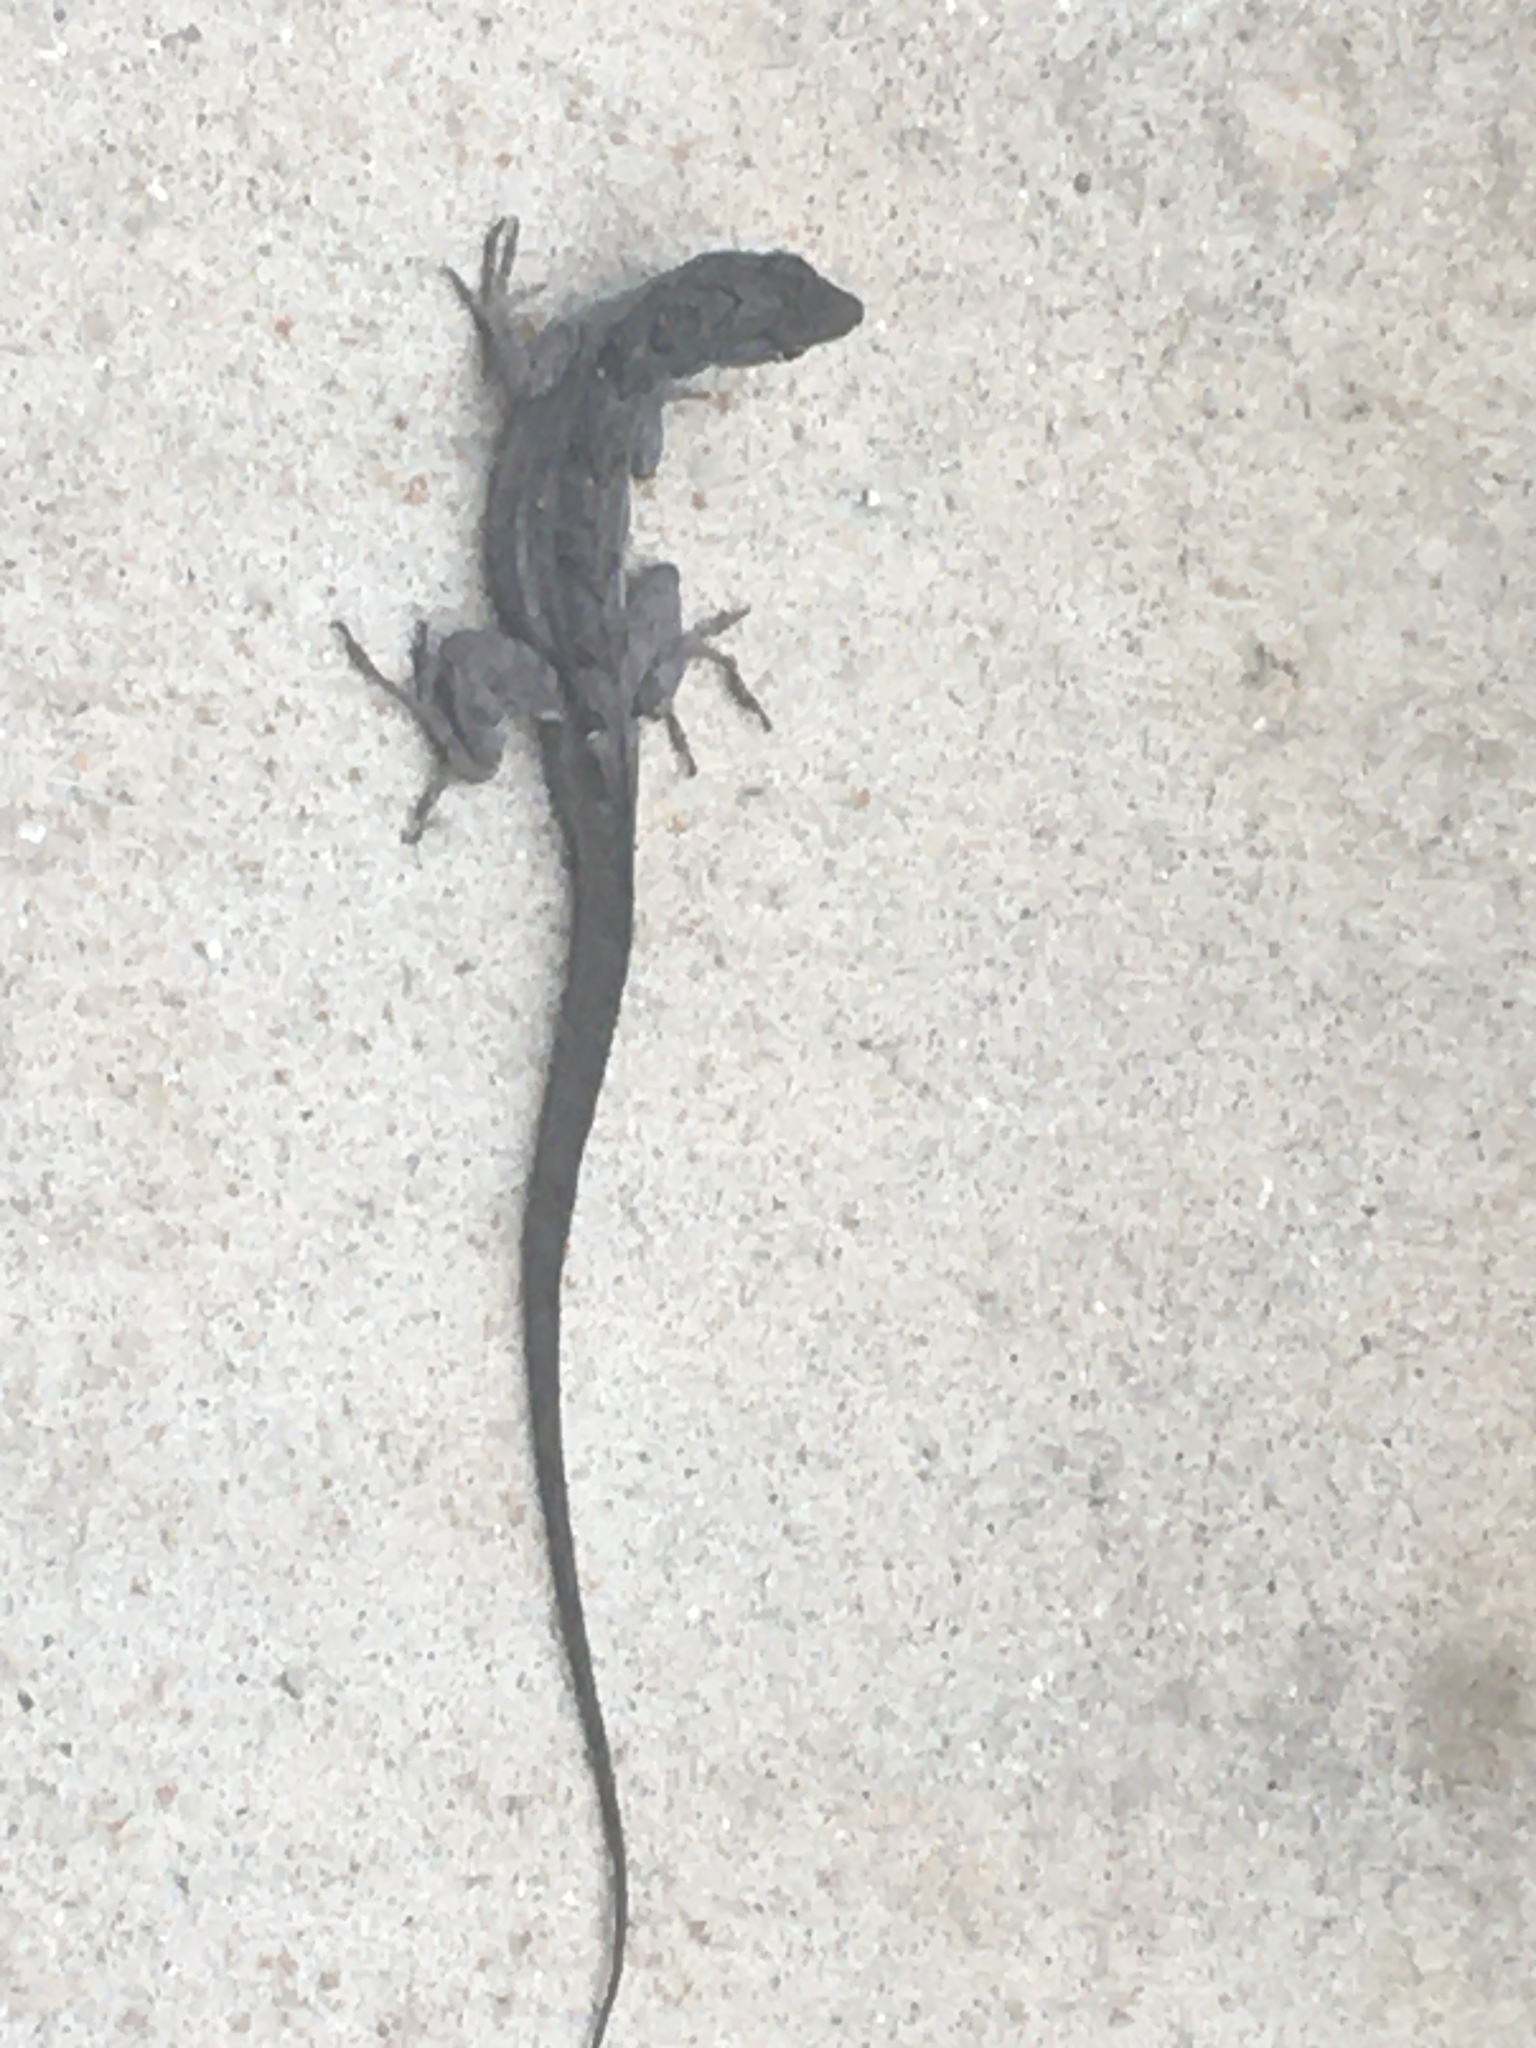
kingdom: Animalia
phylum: Chordata
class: Squamata
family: Dactyloidae
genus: Anolis
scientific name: Anolis sagrei
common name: Brown anole
